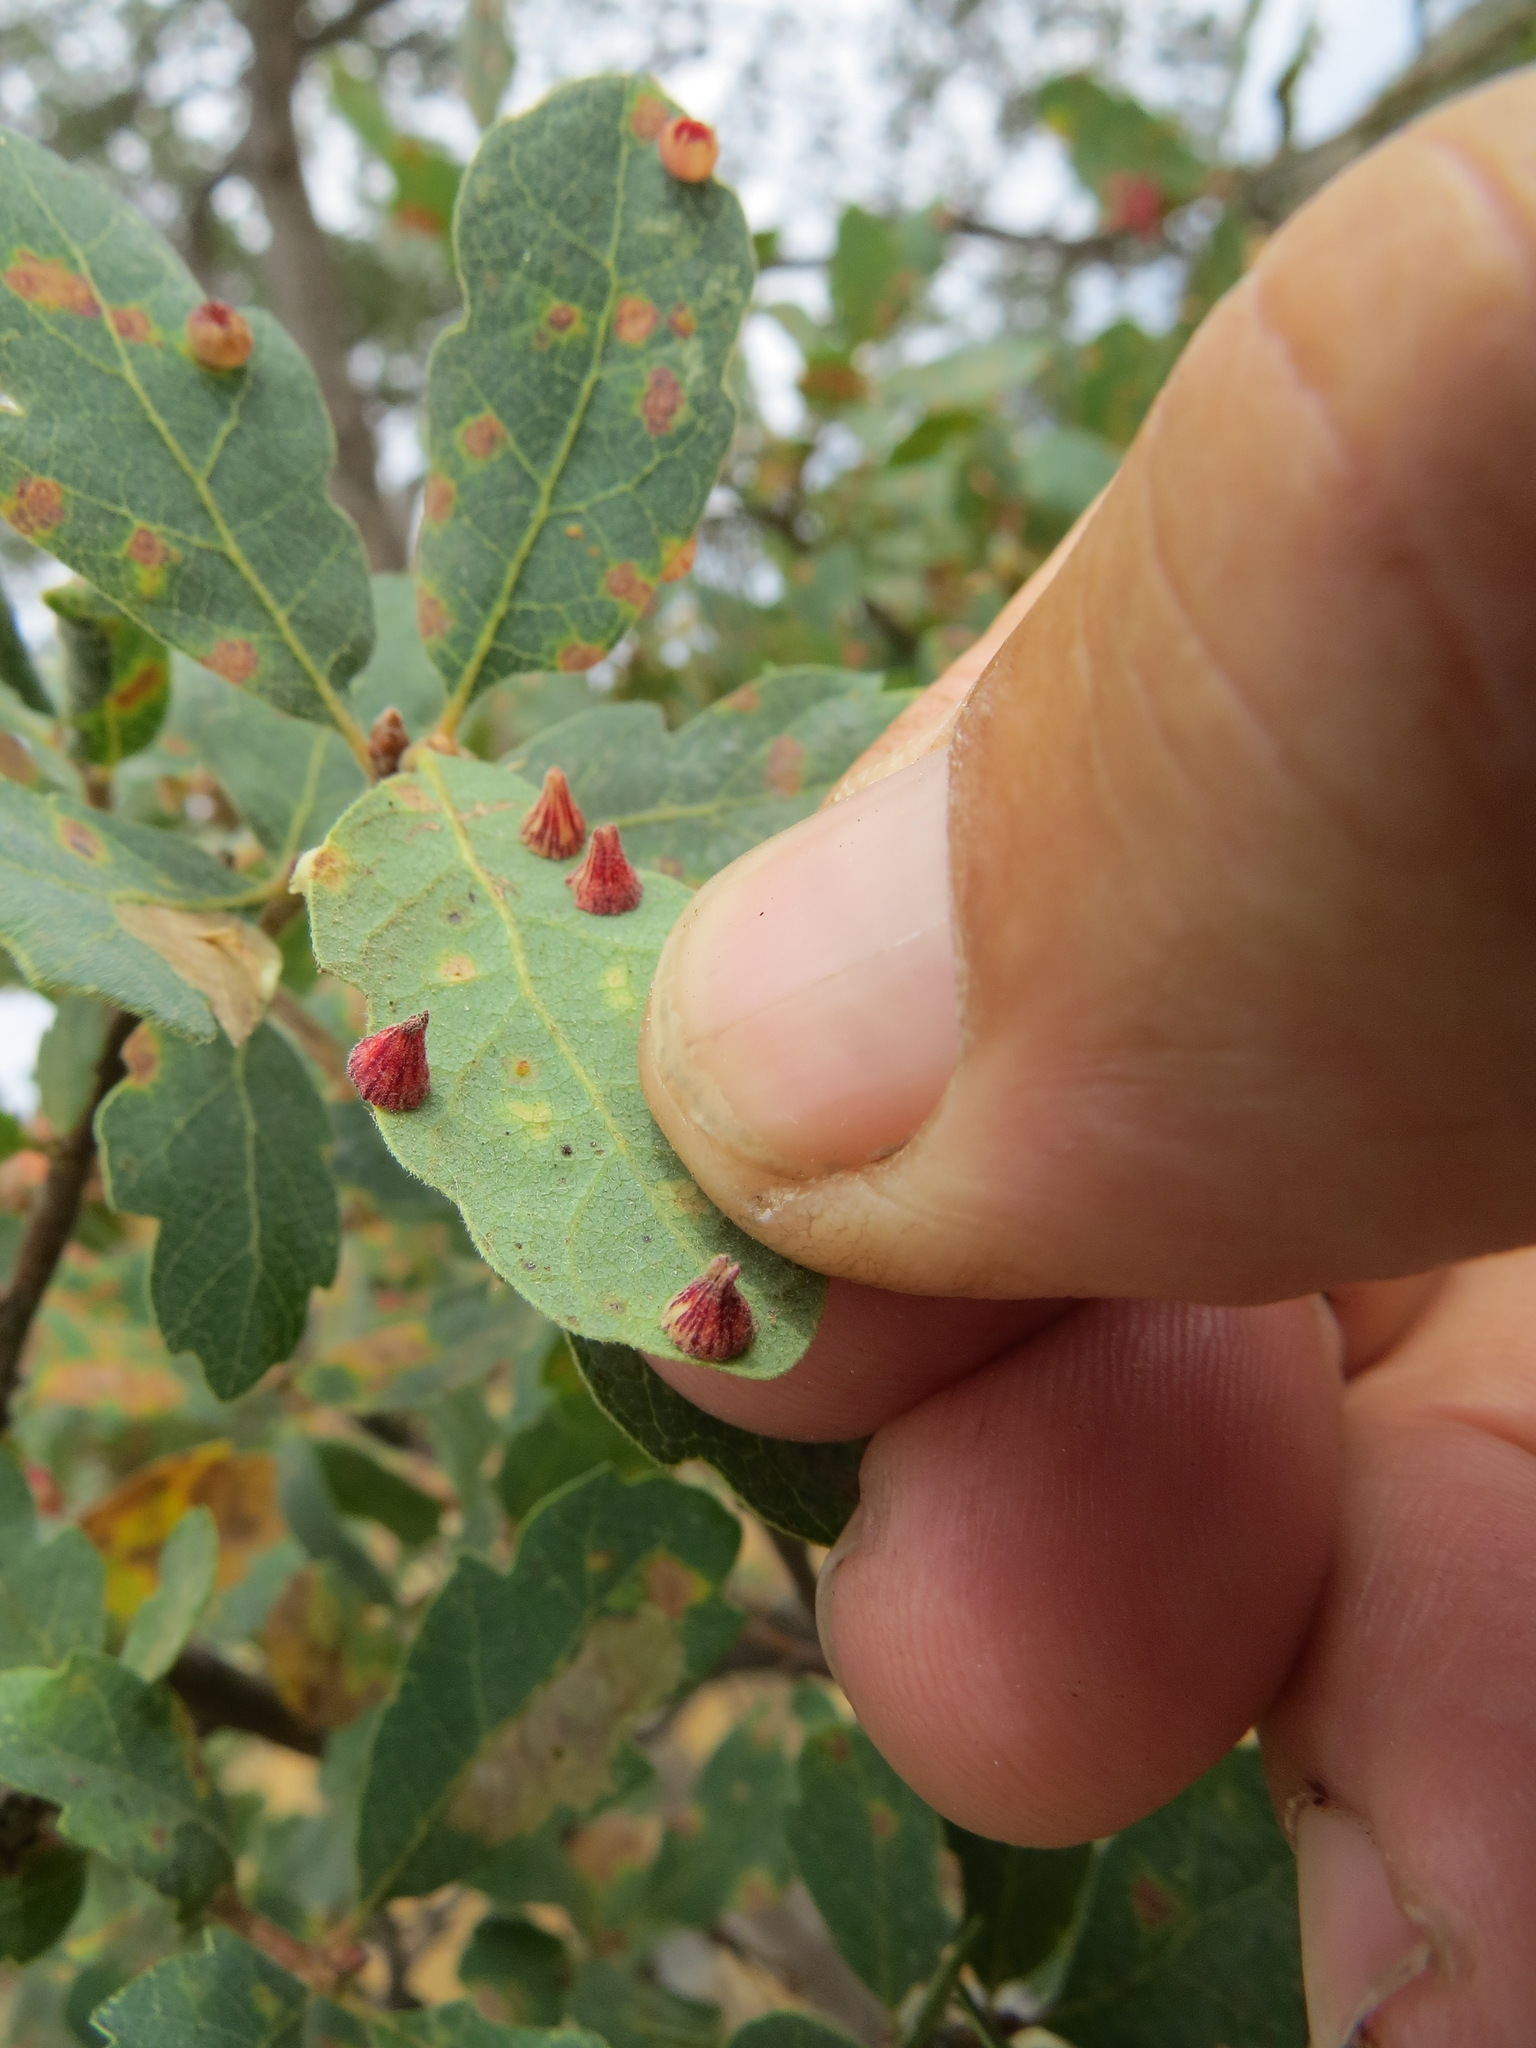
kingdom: Animalia
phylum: Arthropoda
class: Insecta
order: Hymenoptera
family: Cynipidae
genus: Andricus
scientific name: Andricus
